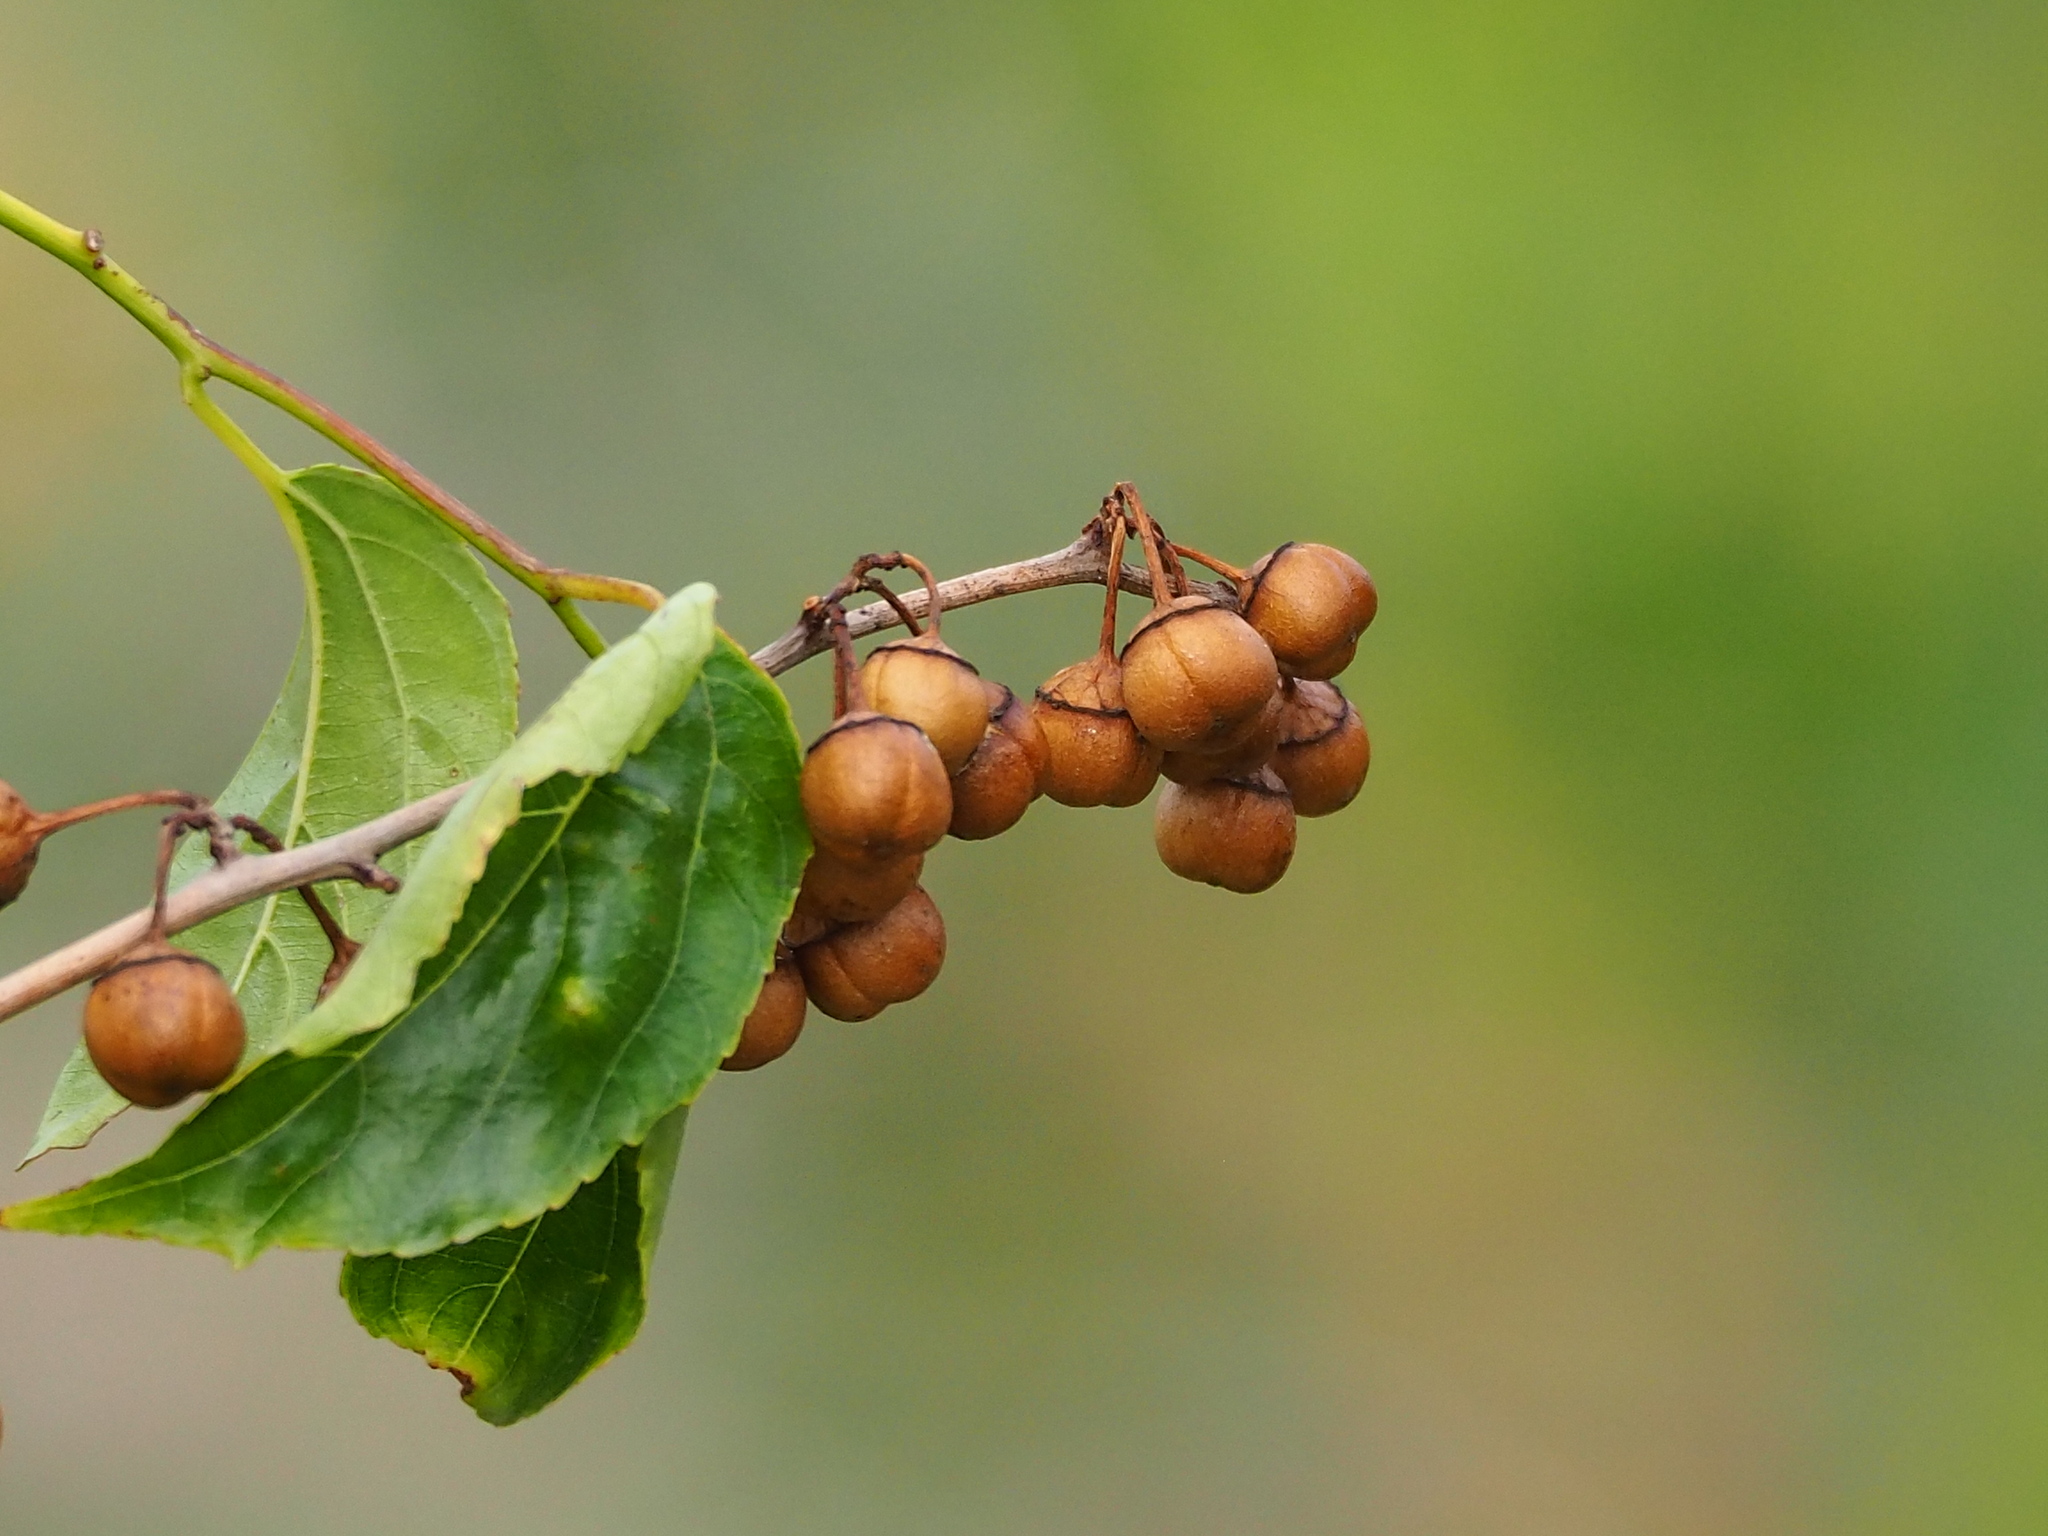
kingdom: Plantae
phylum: Tracheophyta
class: Magnoliopsida
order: Rosales
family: Rhamnaceae
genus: Colubrina
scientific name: Colubrina asiatica
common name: Asian nakedwood
